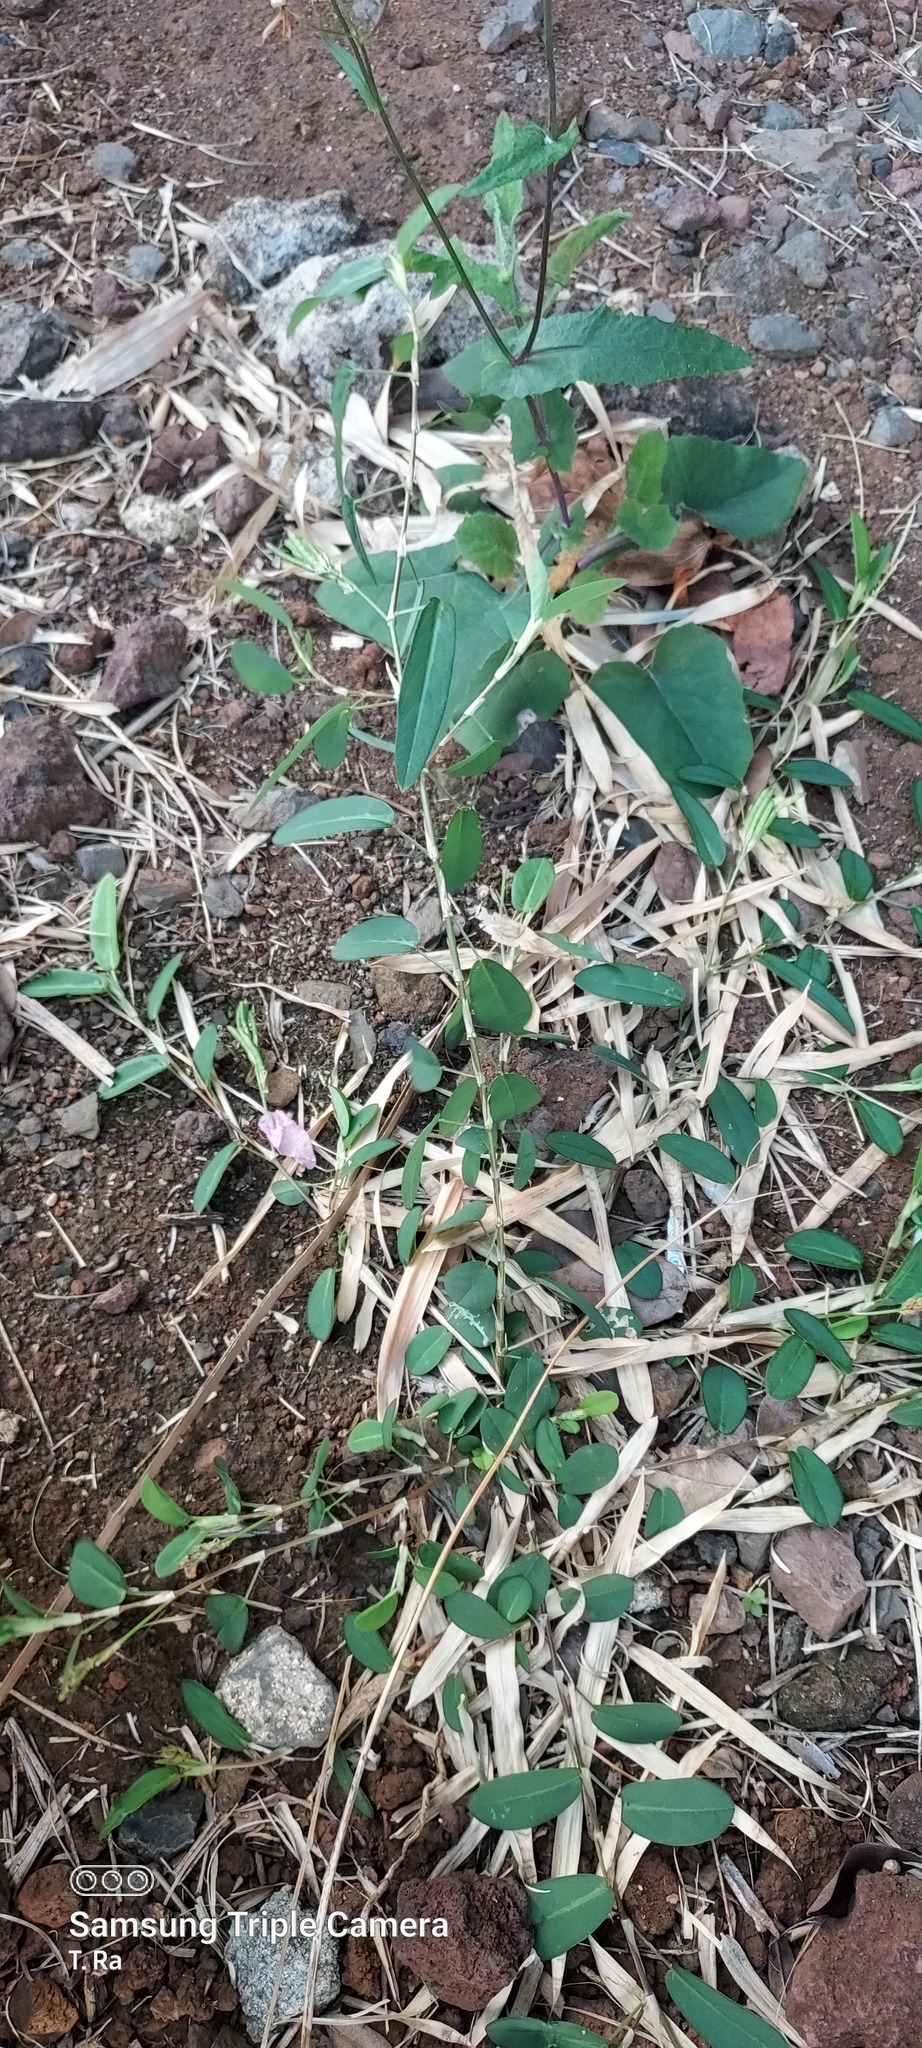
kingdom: Plantae
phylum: Tracheophyta
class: Magnoliopsida
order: Fabales
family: Fabaceae
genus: Alysicarpus
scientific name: Alysicarpus vaginalis
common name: White moneywort
